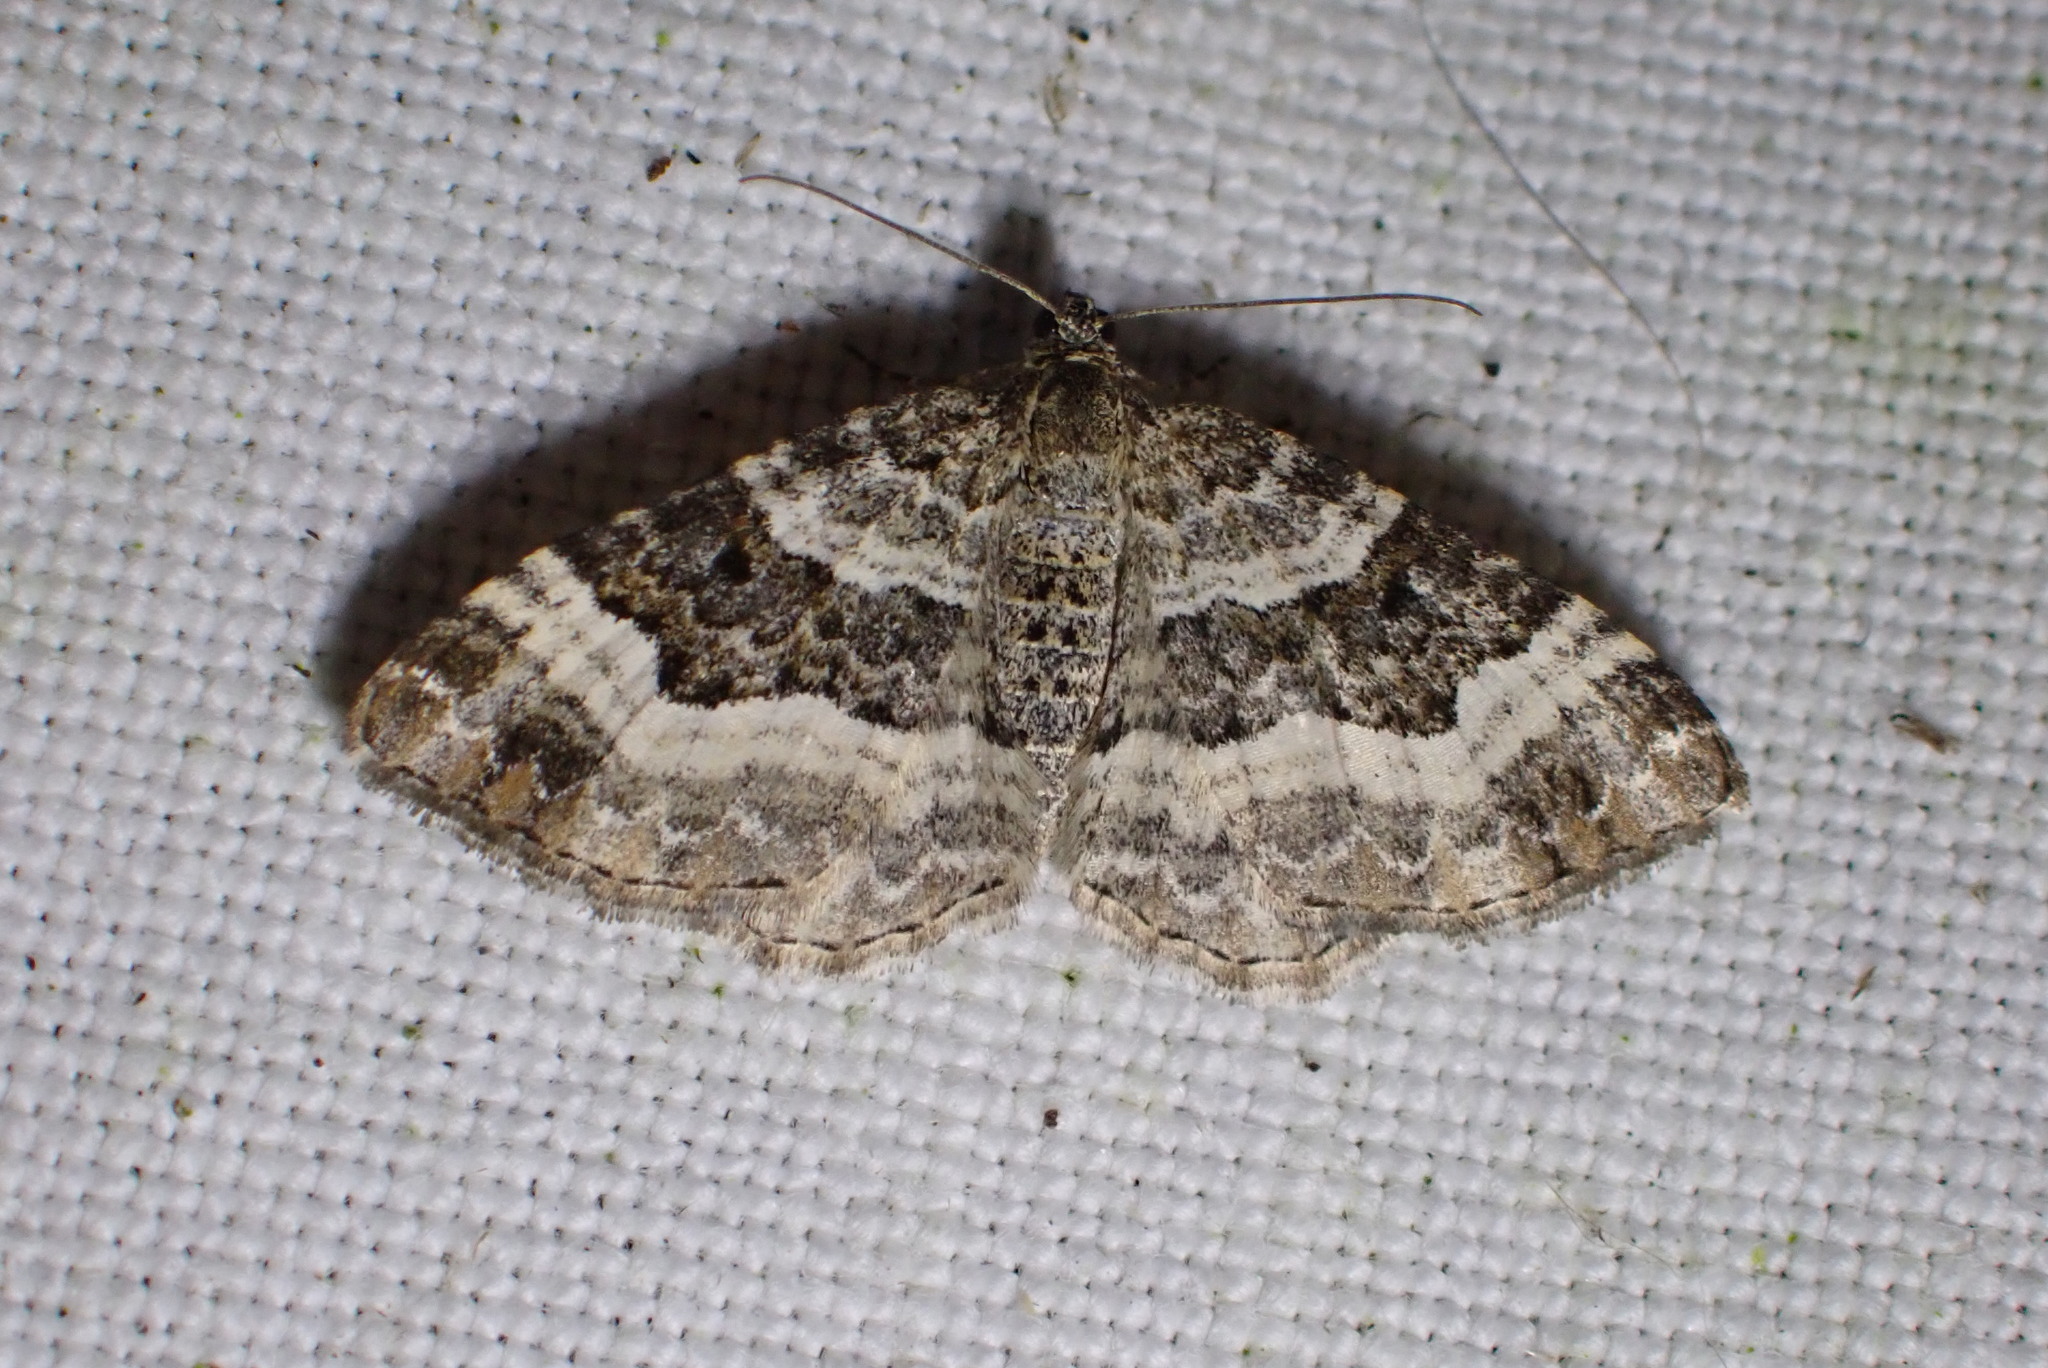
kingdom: Animalia
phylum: Arthropoda
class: Insecta
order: Lepidoptera
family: Geometridae
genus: Epirrhoe
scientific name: Epirrhoe alternata
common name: Common carpet
